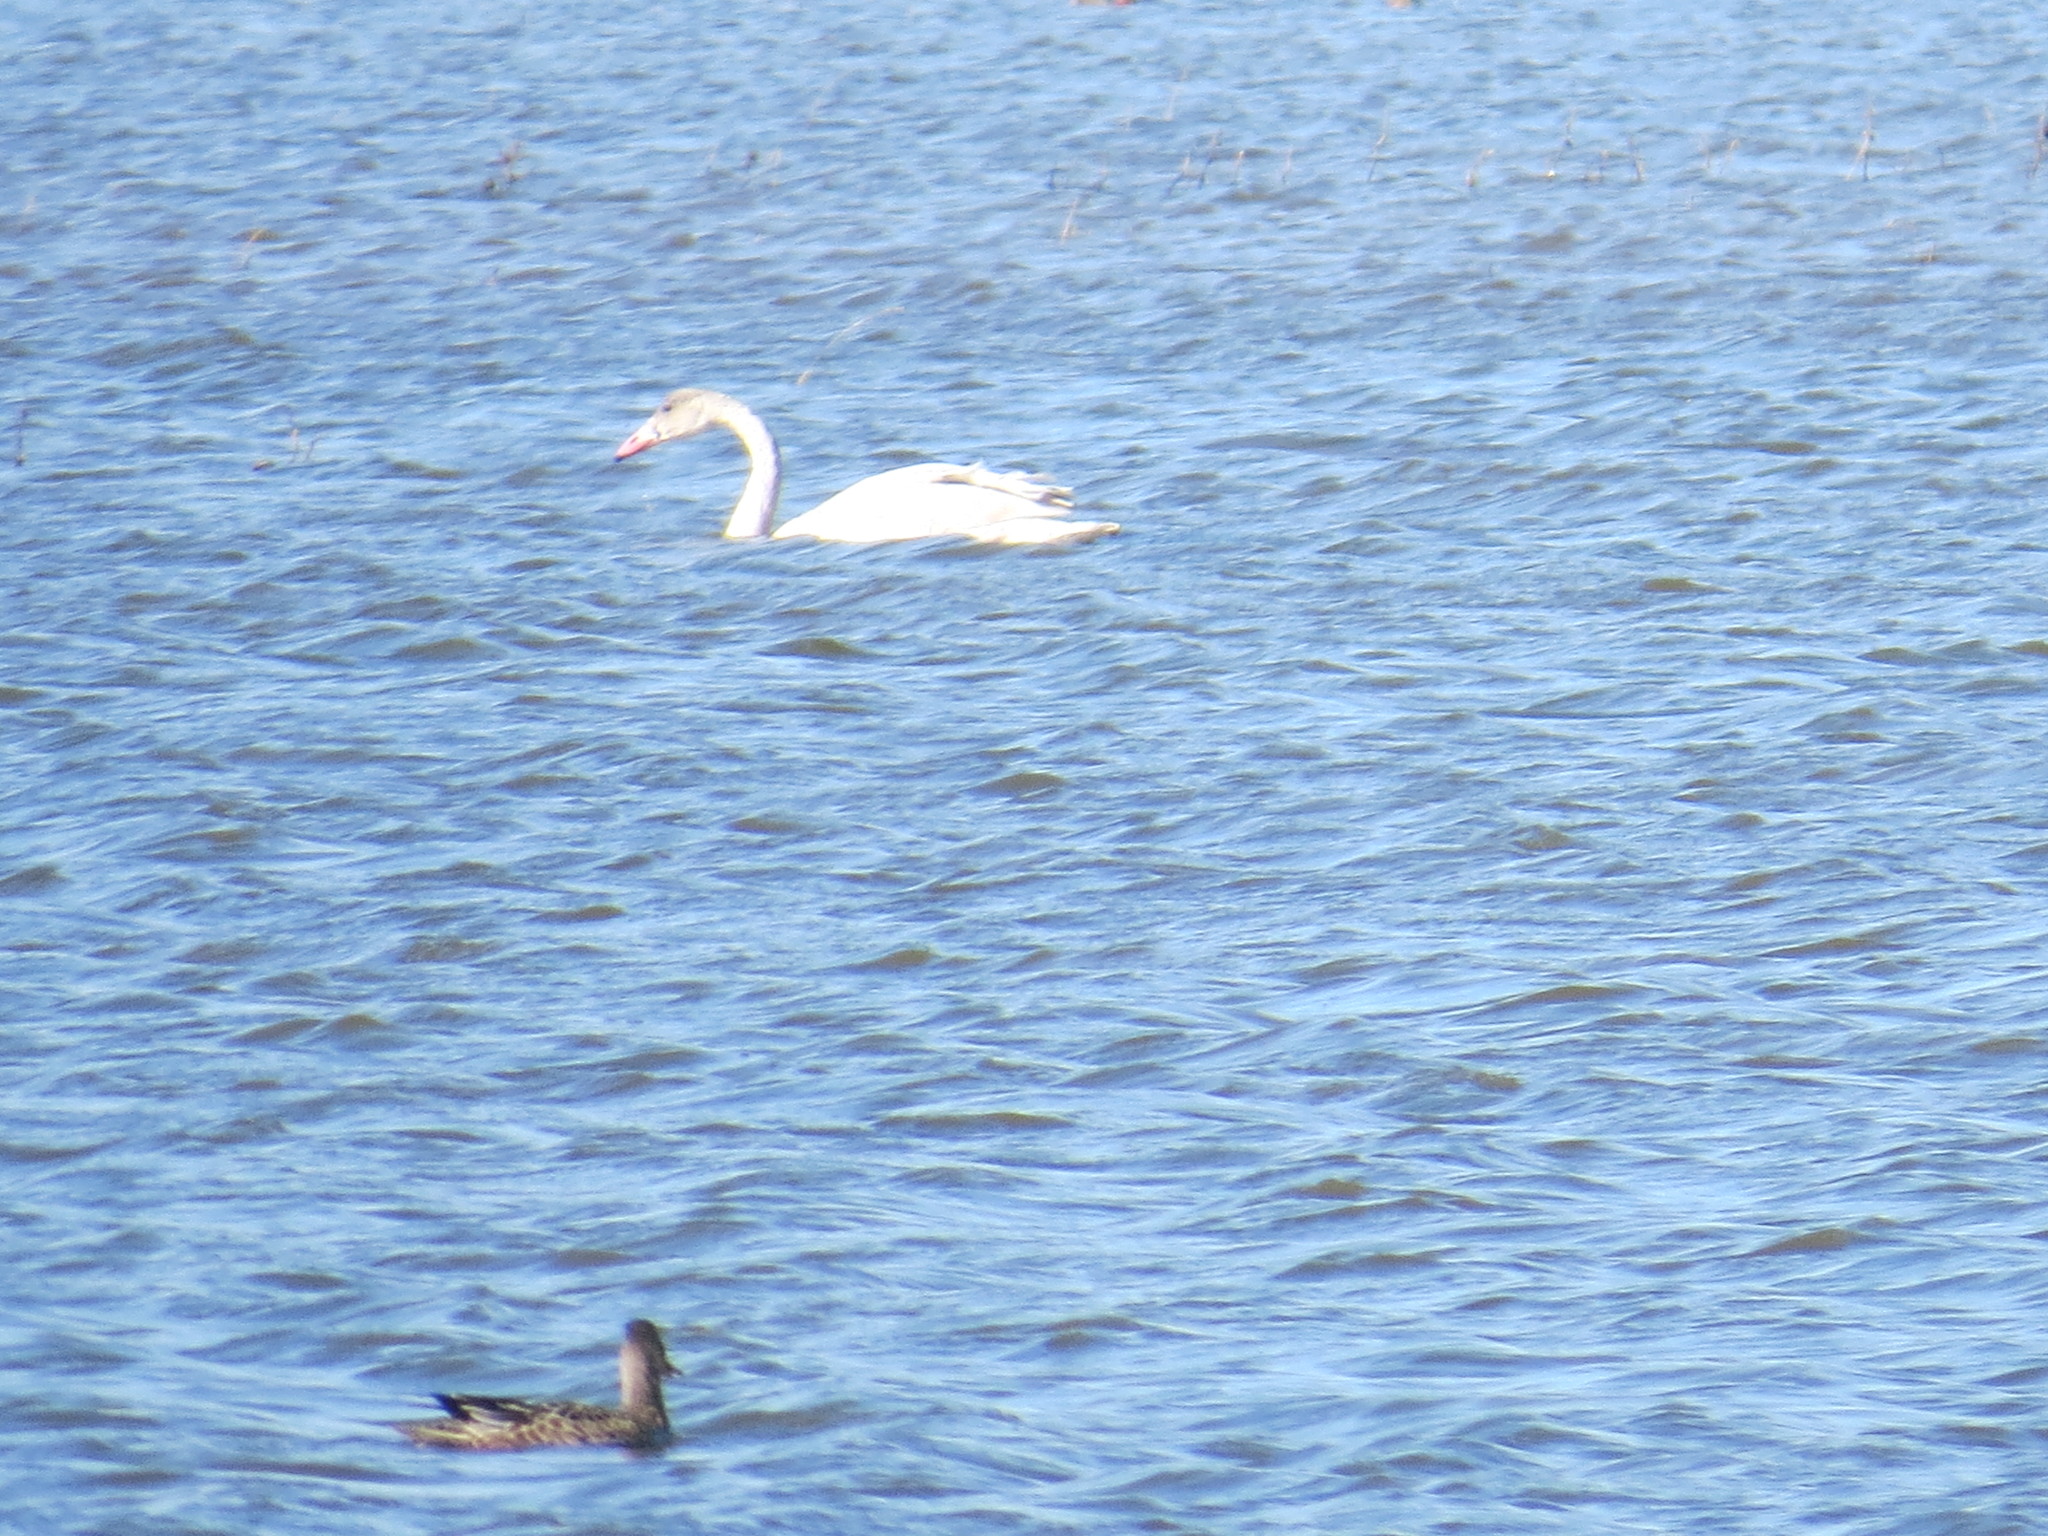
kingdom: Animalia
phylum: Chordata
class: Aves
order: Anseriformes
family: Anatidae
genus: Cygnus
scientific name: Cygnus columbianus
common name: Tundra swan
